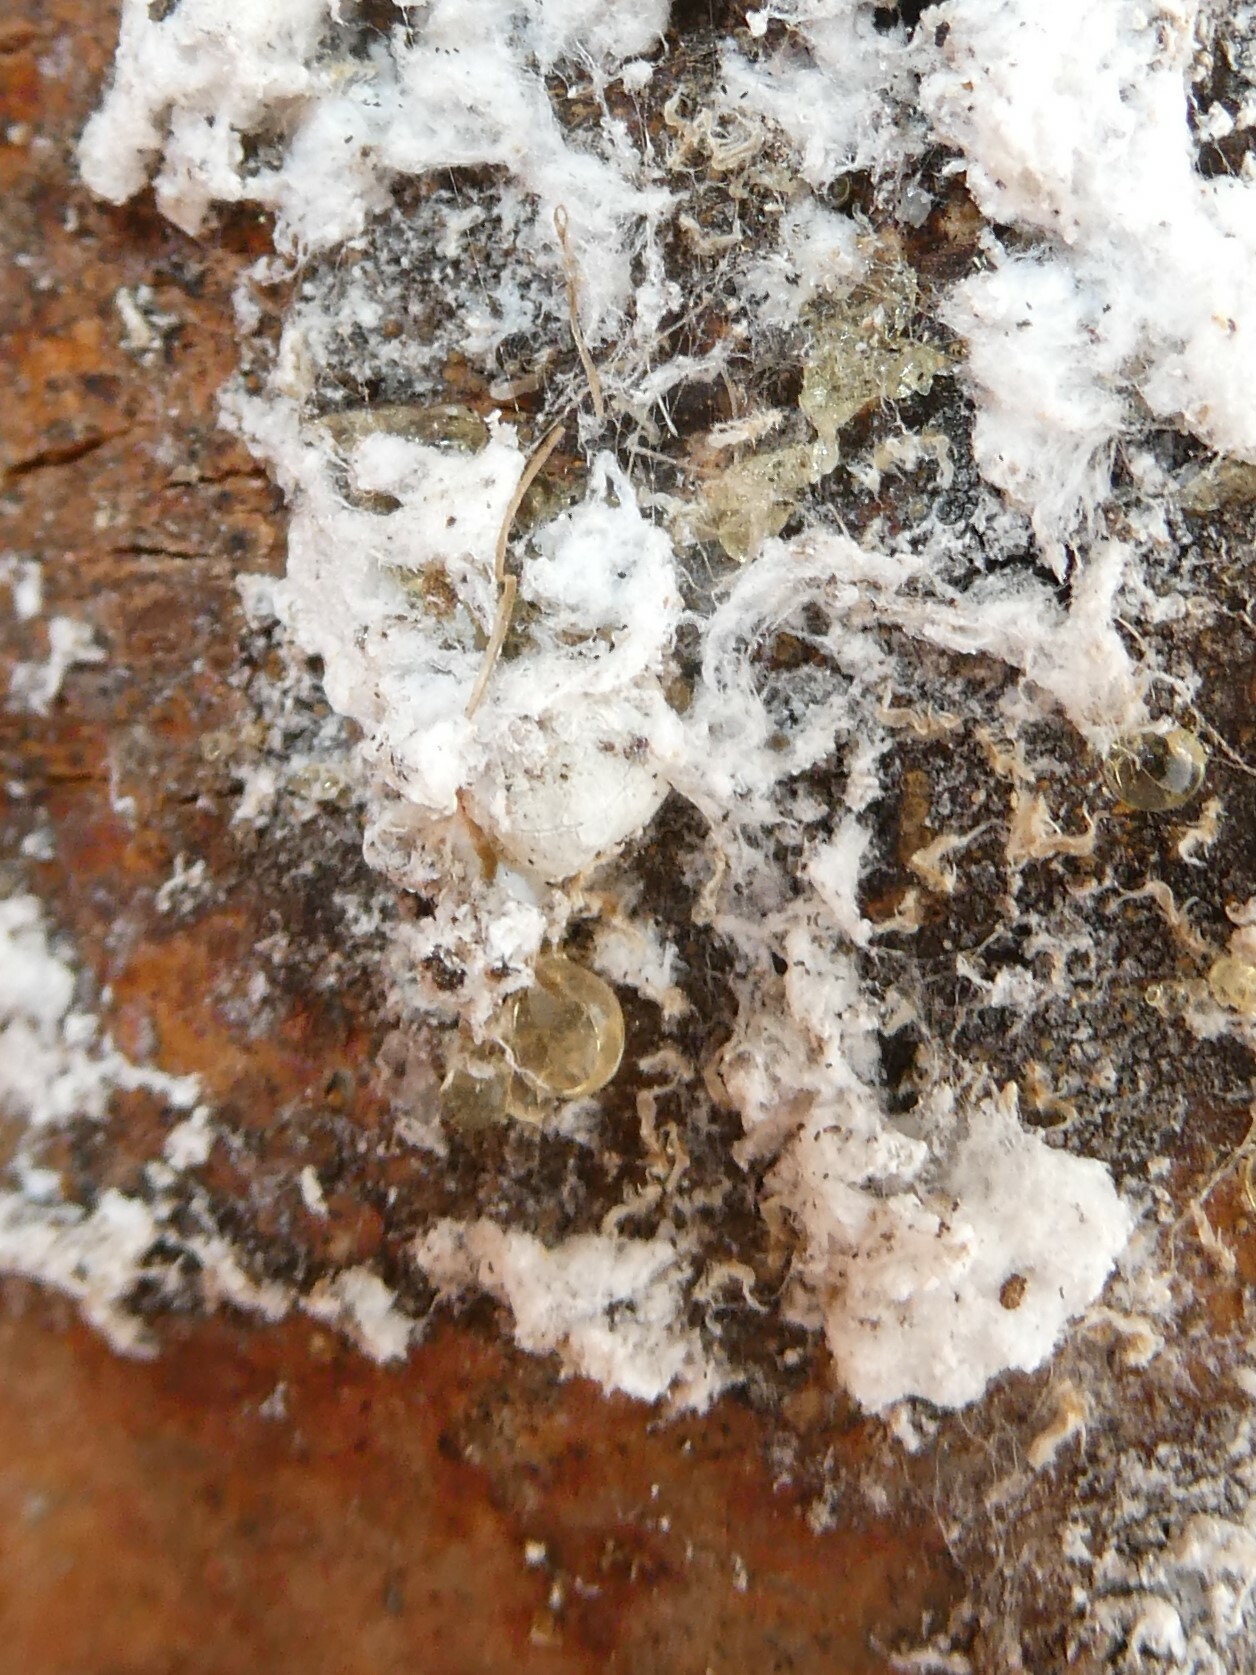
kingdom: Animalia
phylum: Arthropoda
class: Insecta
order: Hemiptera
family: Adelgidae
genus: Pineus
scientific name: Pineus strobi
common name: Pine bark adelgid
